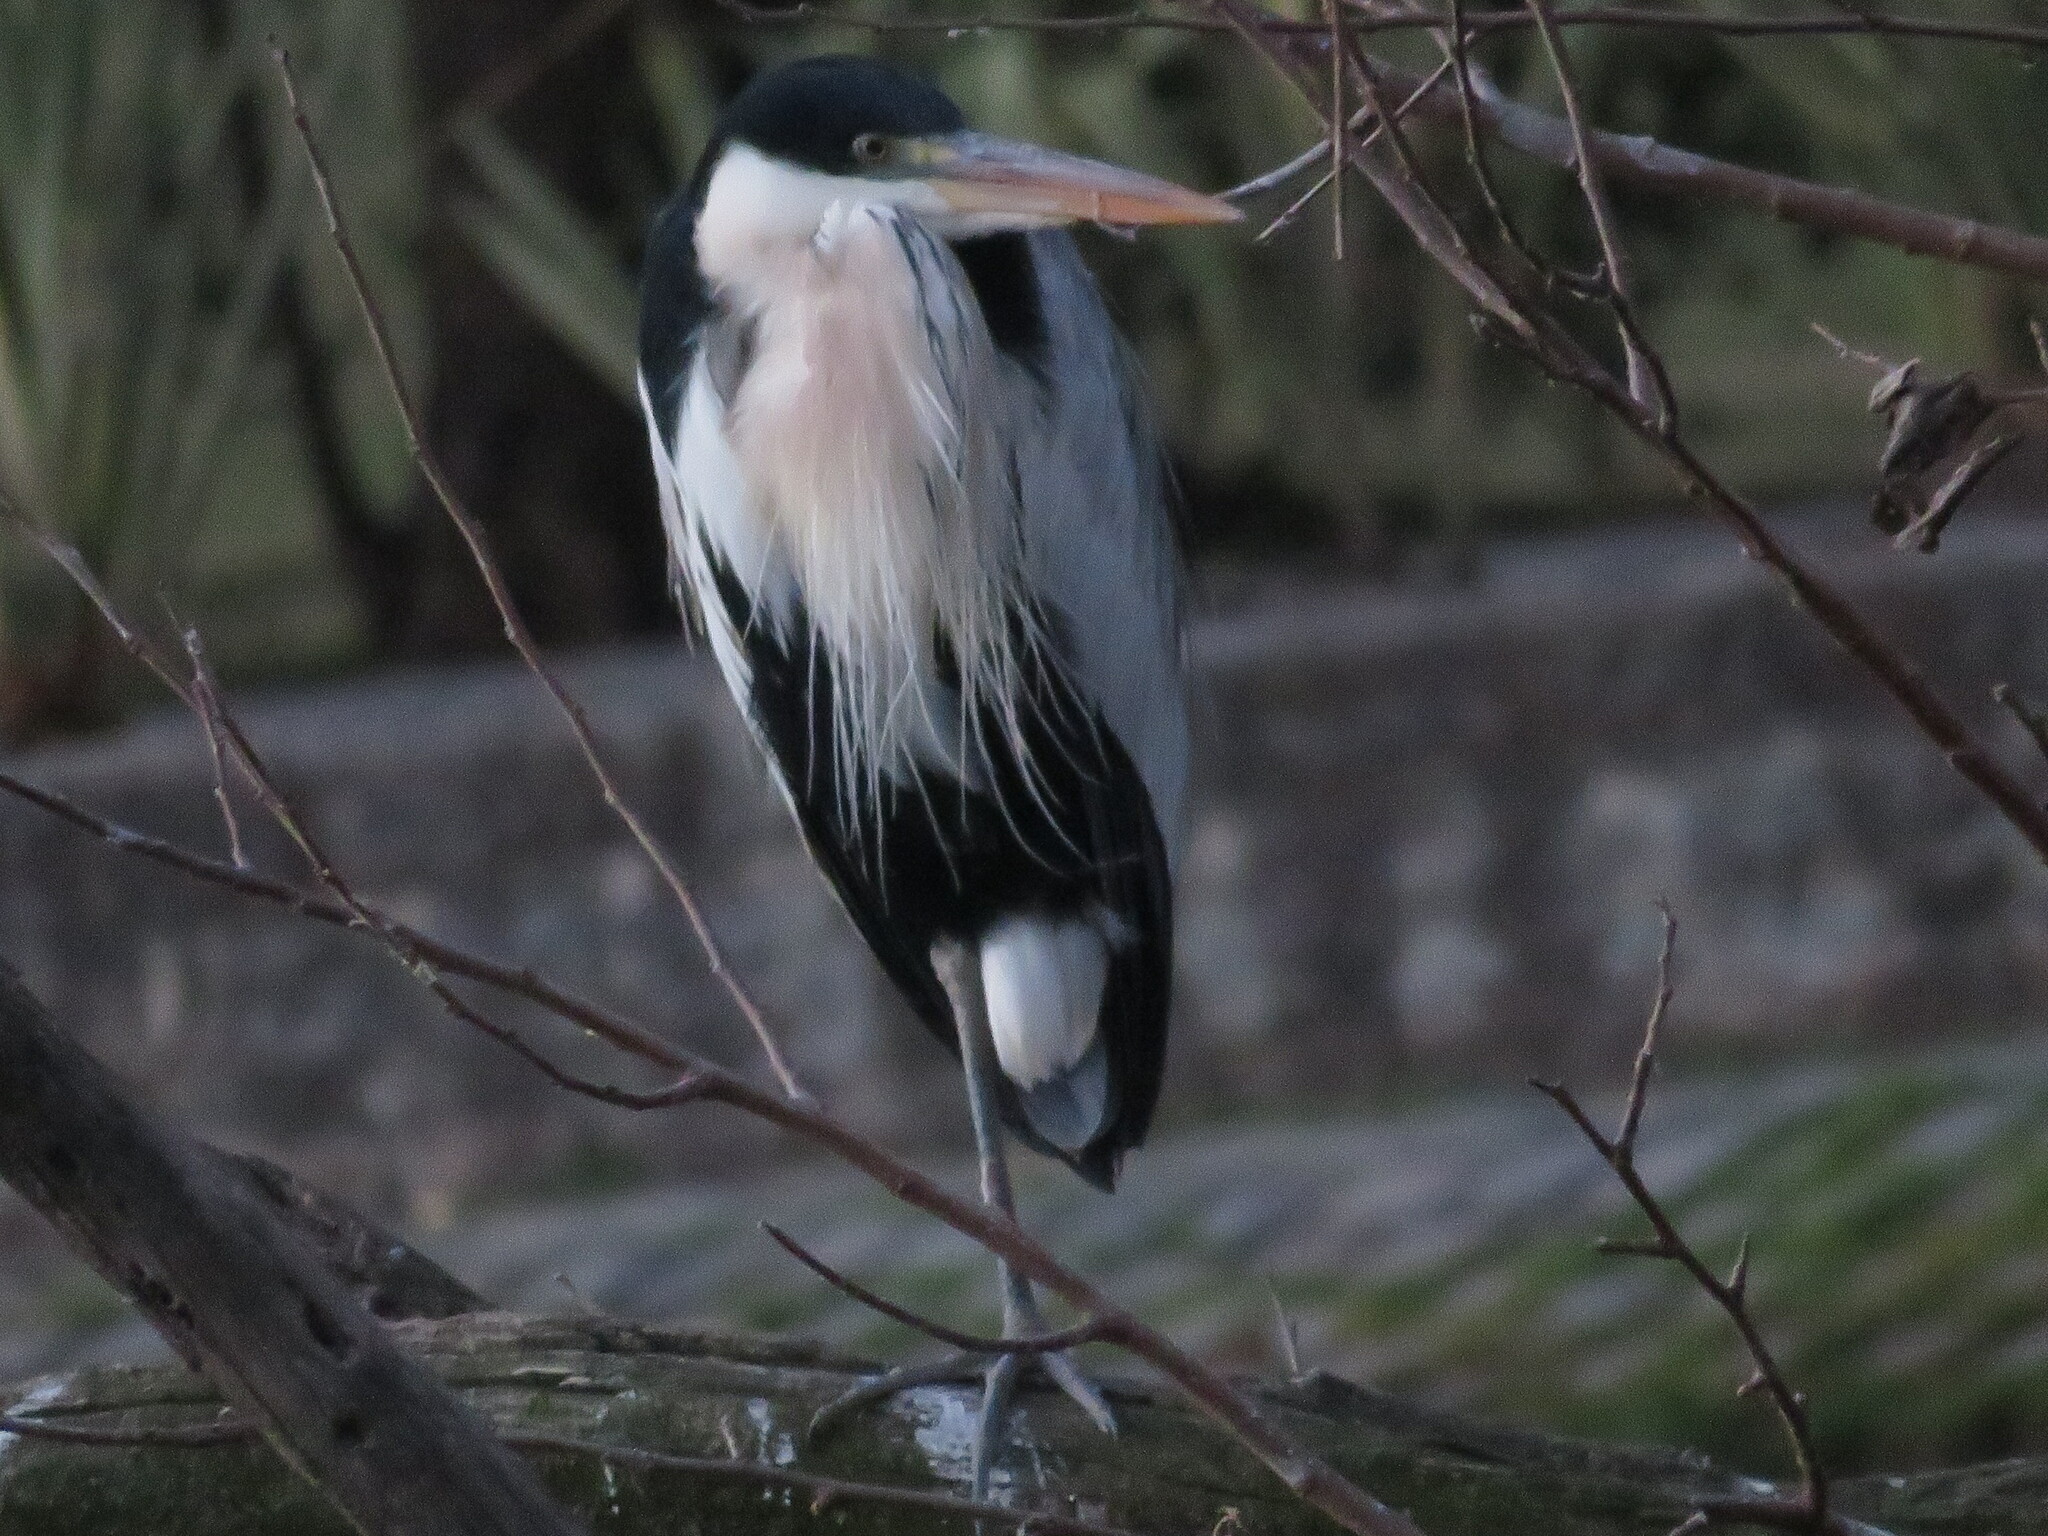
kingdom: Animalia
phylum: Chordata
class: Aves
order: Pelecaniformes
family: Ardeidae
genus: Ardea
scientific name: Ardea cocoi
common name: Cocoi heron
